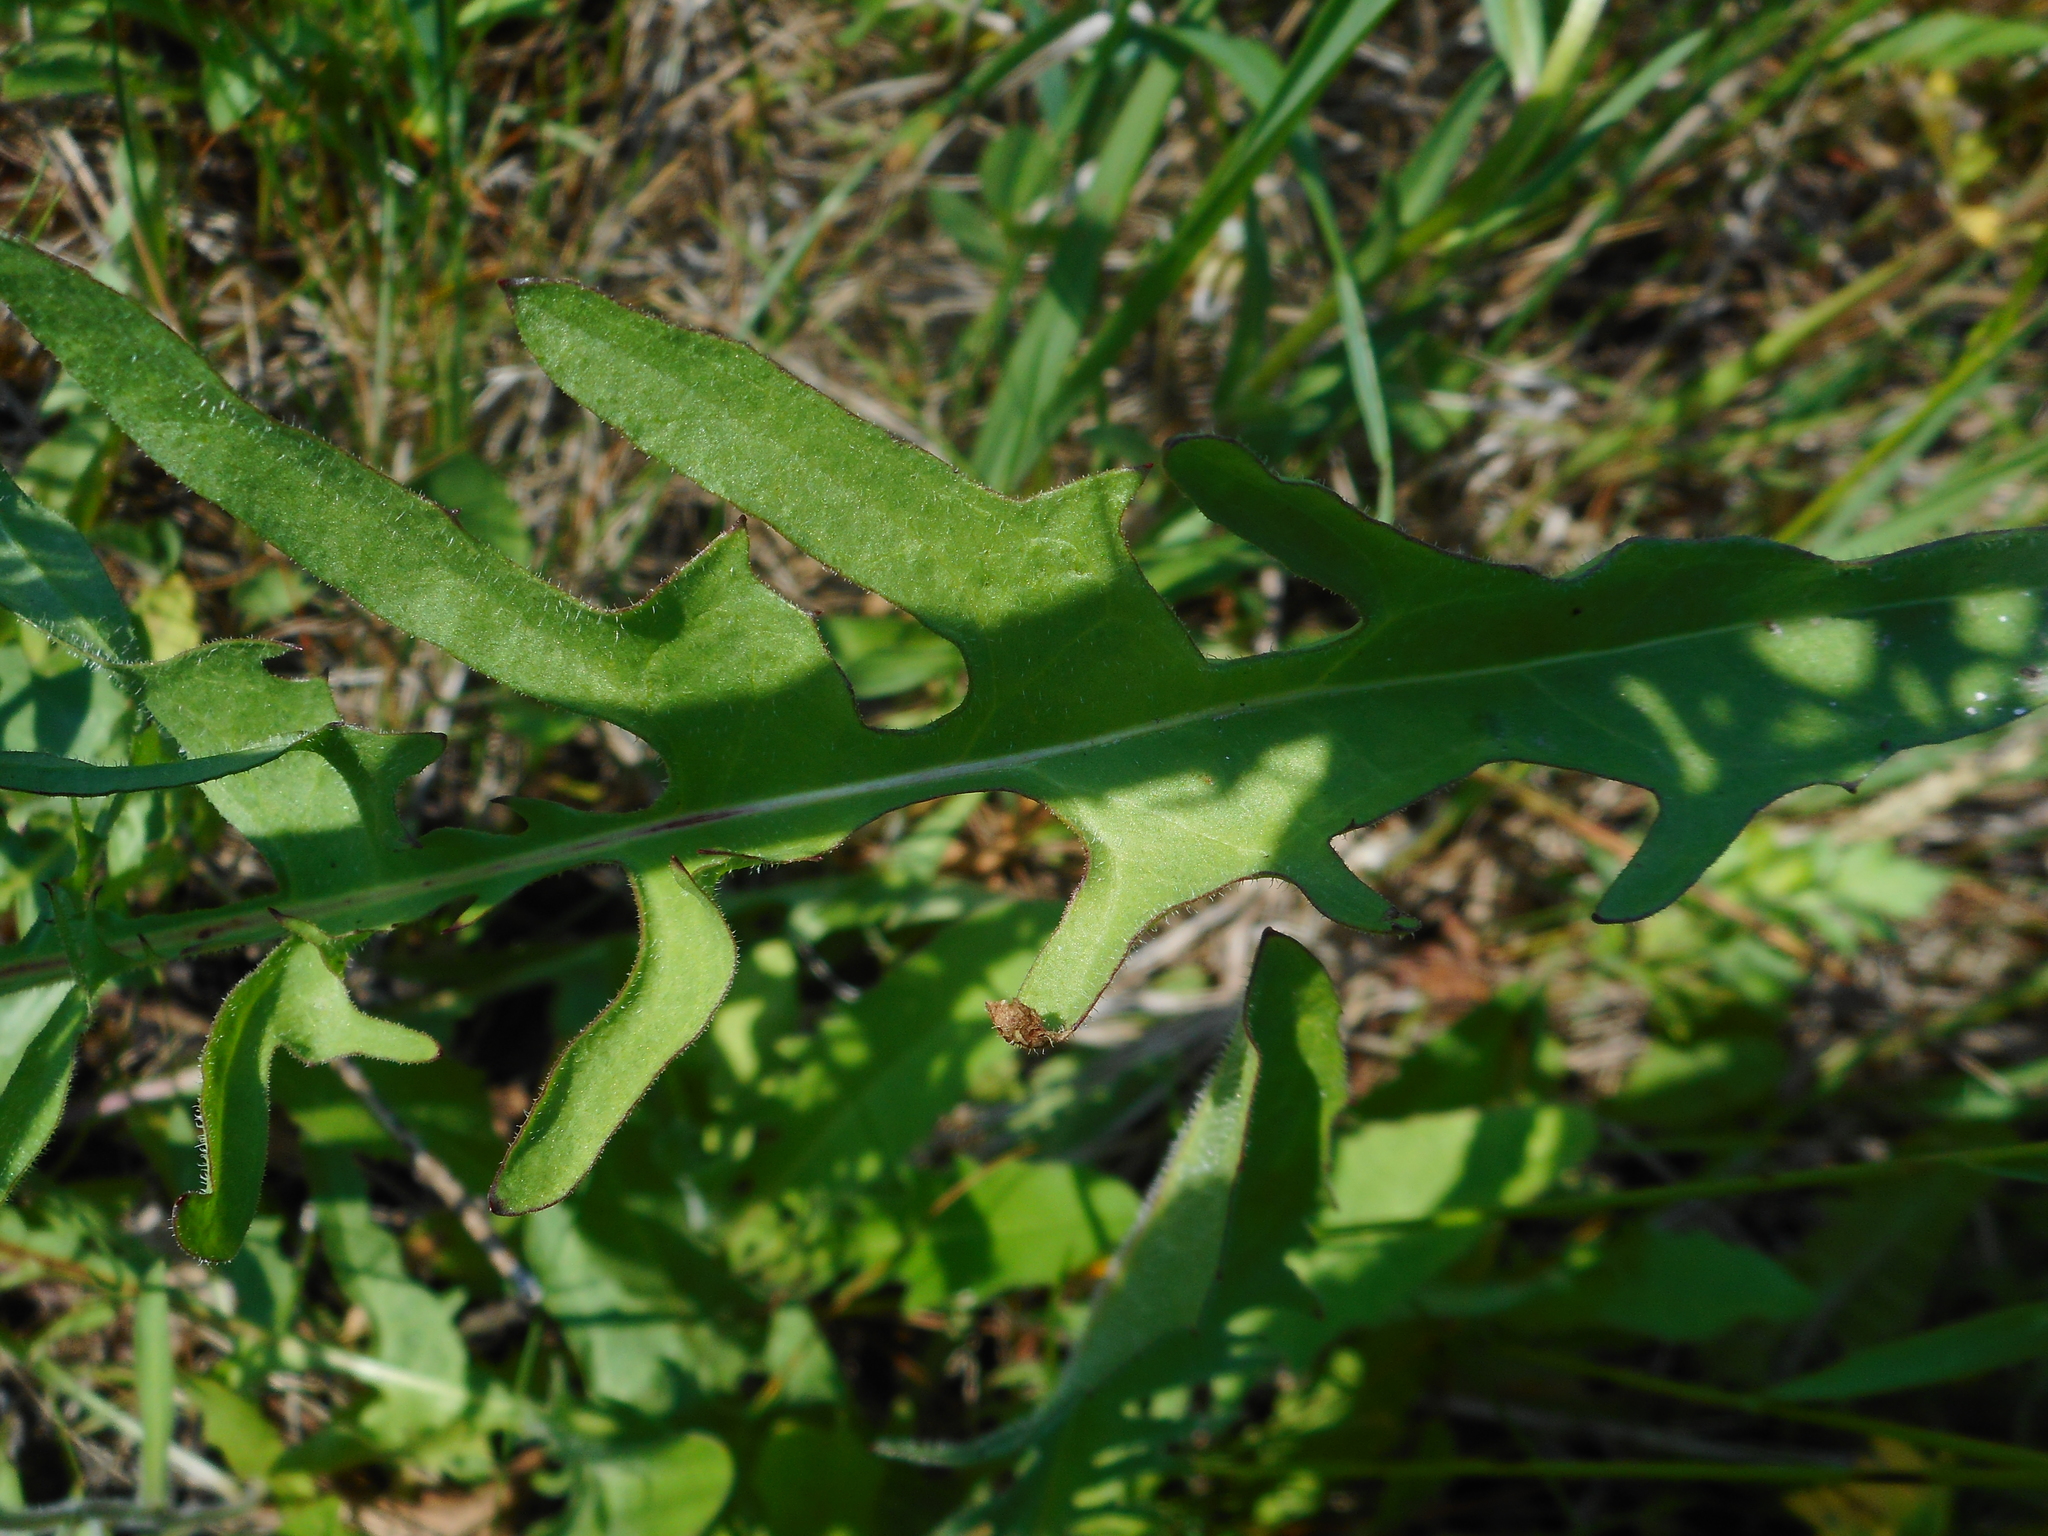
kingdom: Plantae
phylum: Tracheophyta
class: Magnoliopsida
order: Asterales
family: Asteraceae
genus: Crepis
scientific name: Crepis biennis
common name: Rough hawk's-beard
